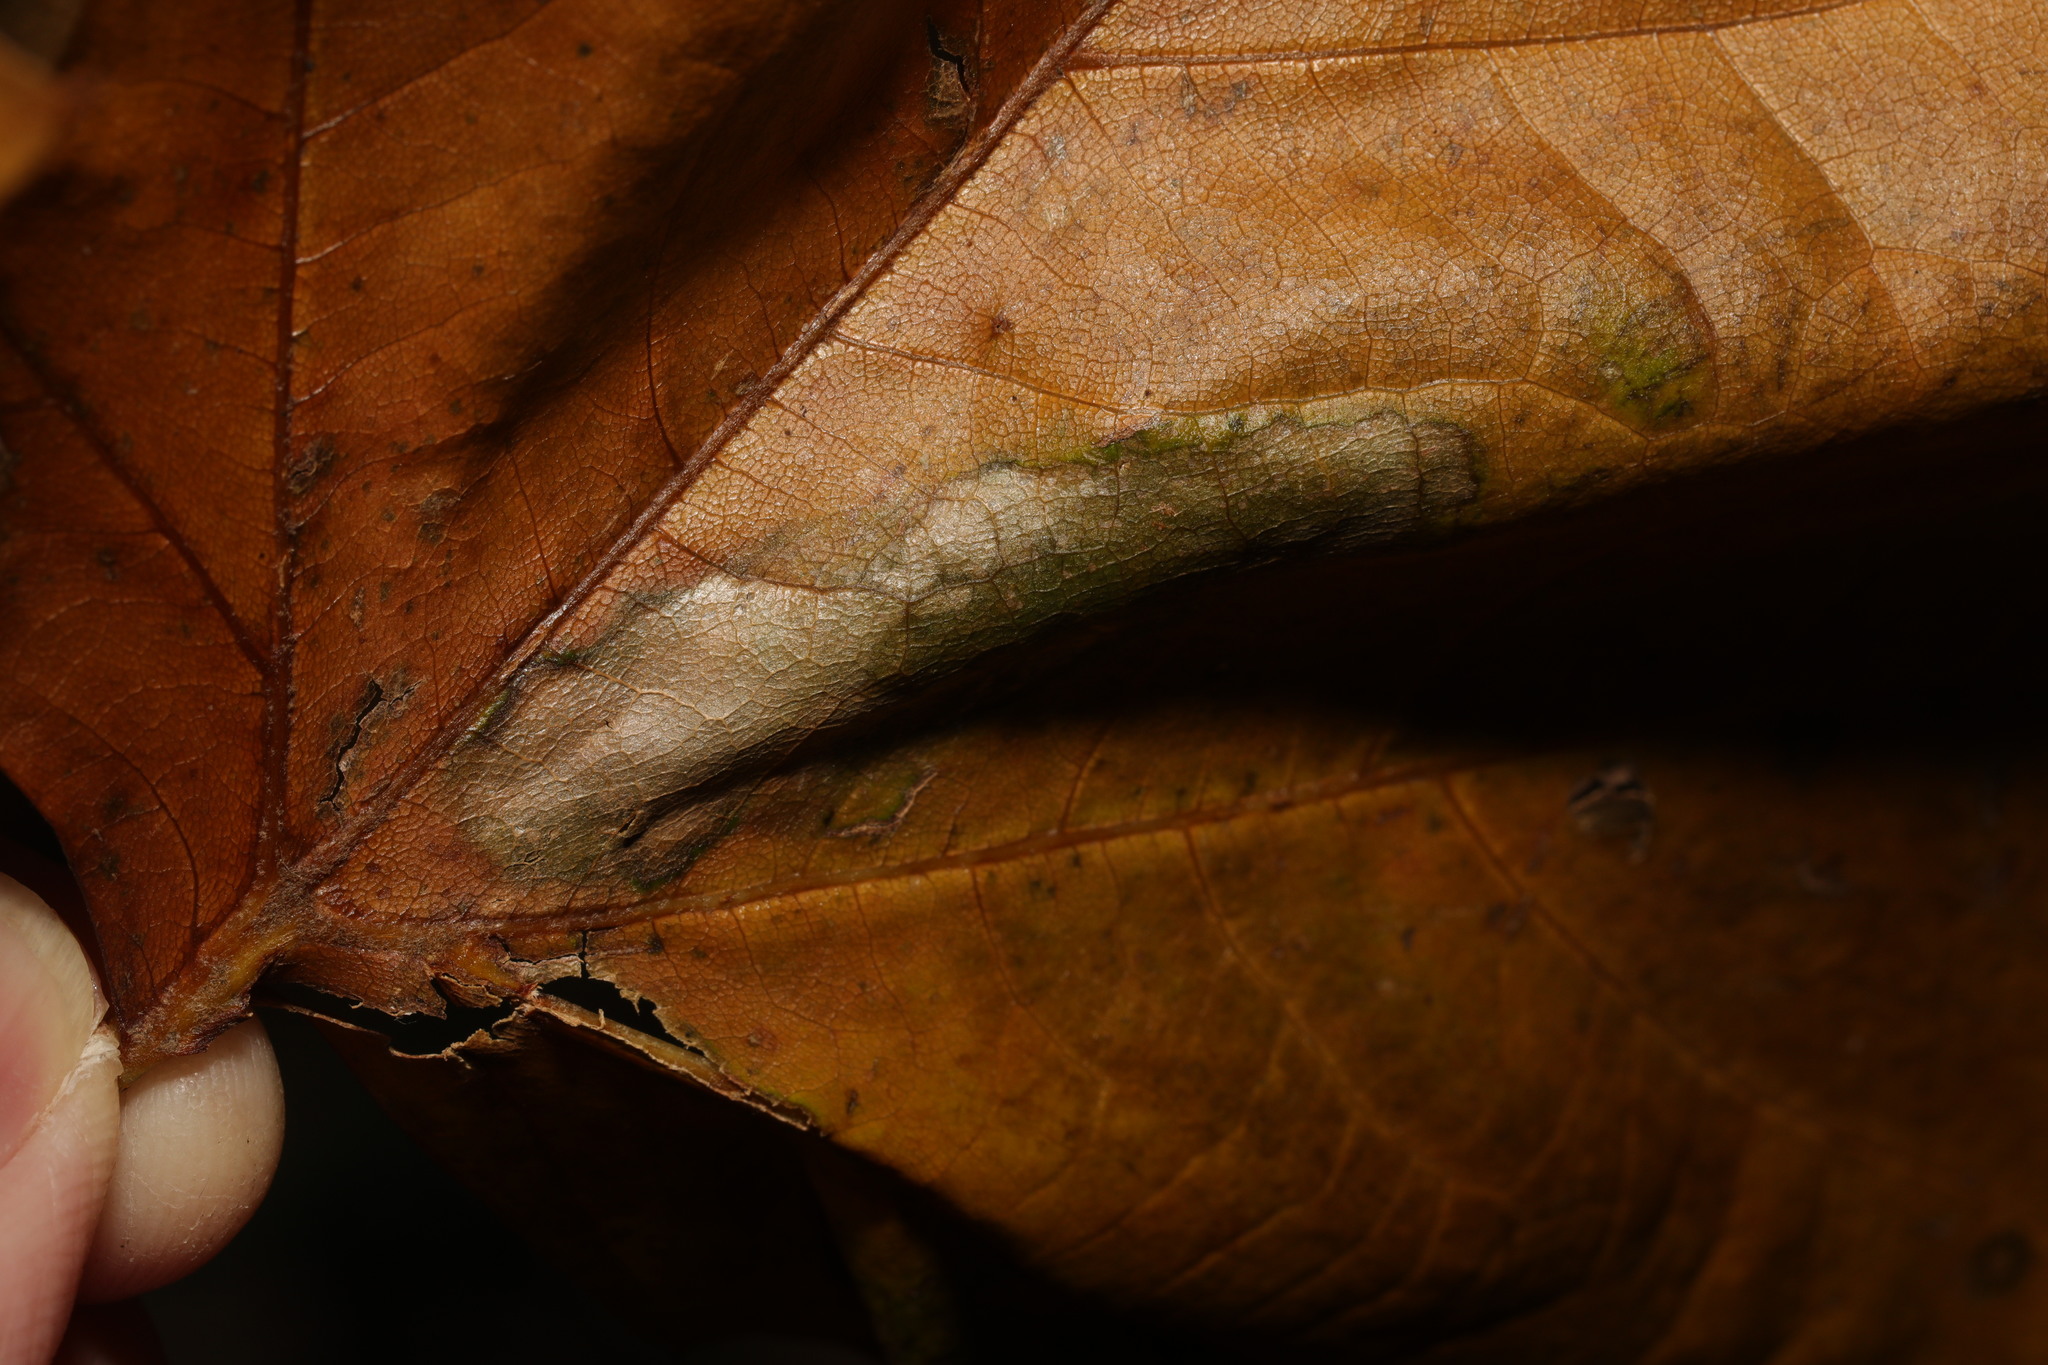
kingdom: Animalia
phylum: Arthropoda
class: Insecta
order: Lepidoptera
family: Gracillariidae
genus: Phyllonorycter
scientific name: Phyllonorycter platani
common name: London midget
